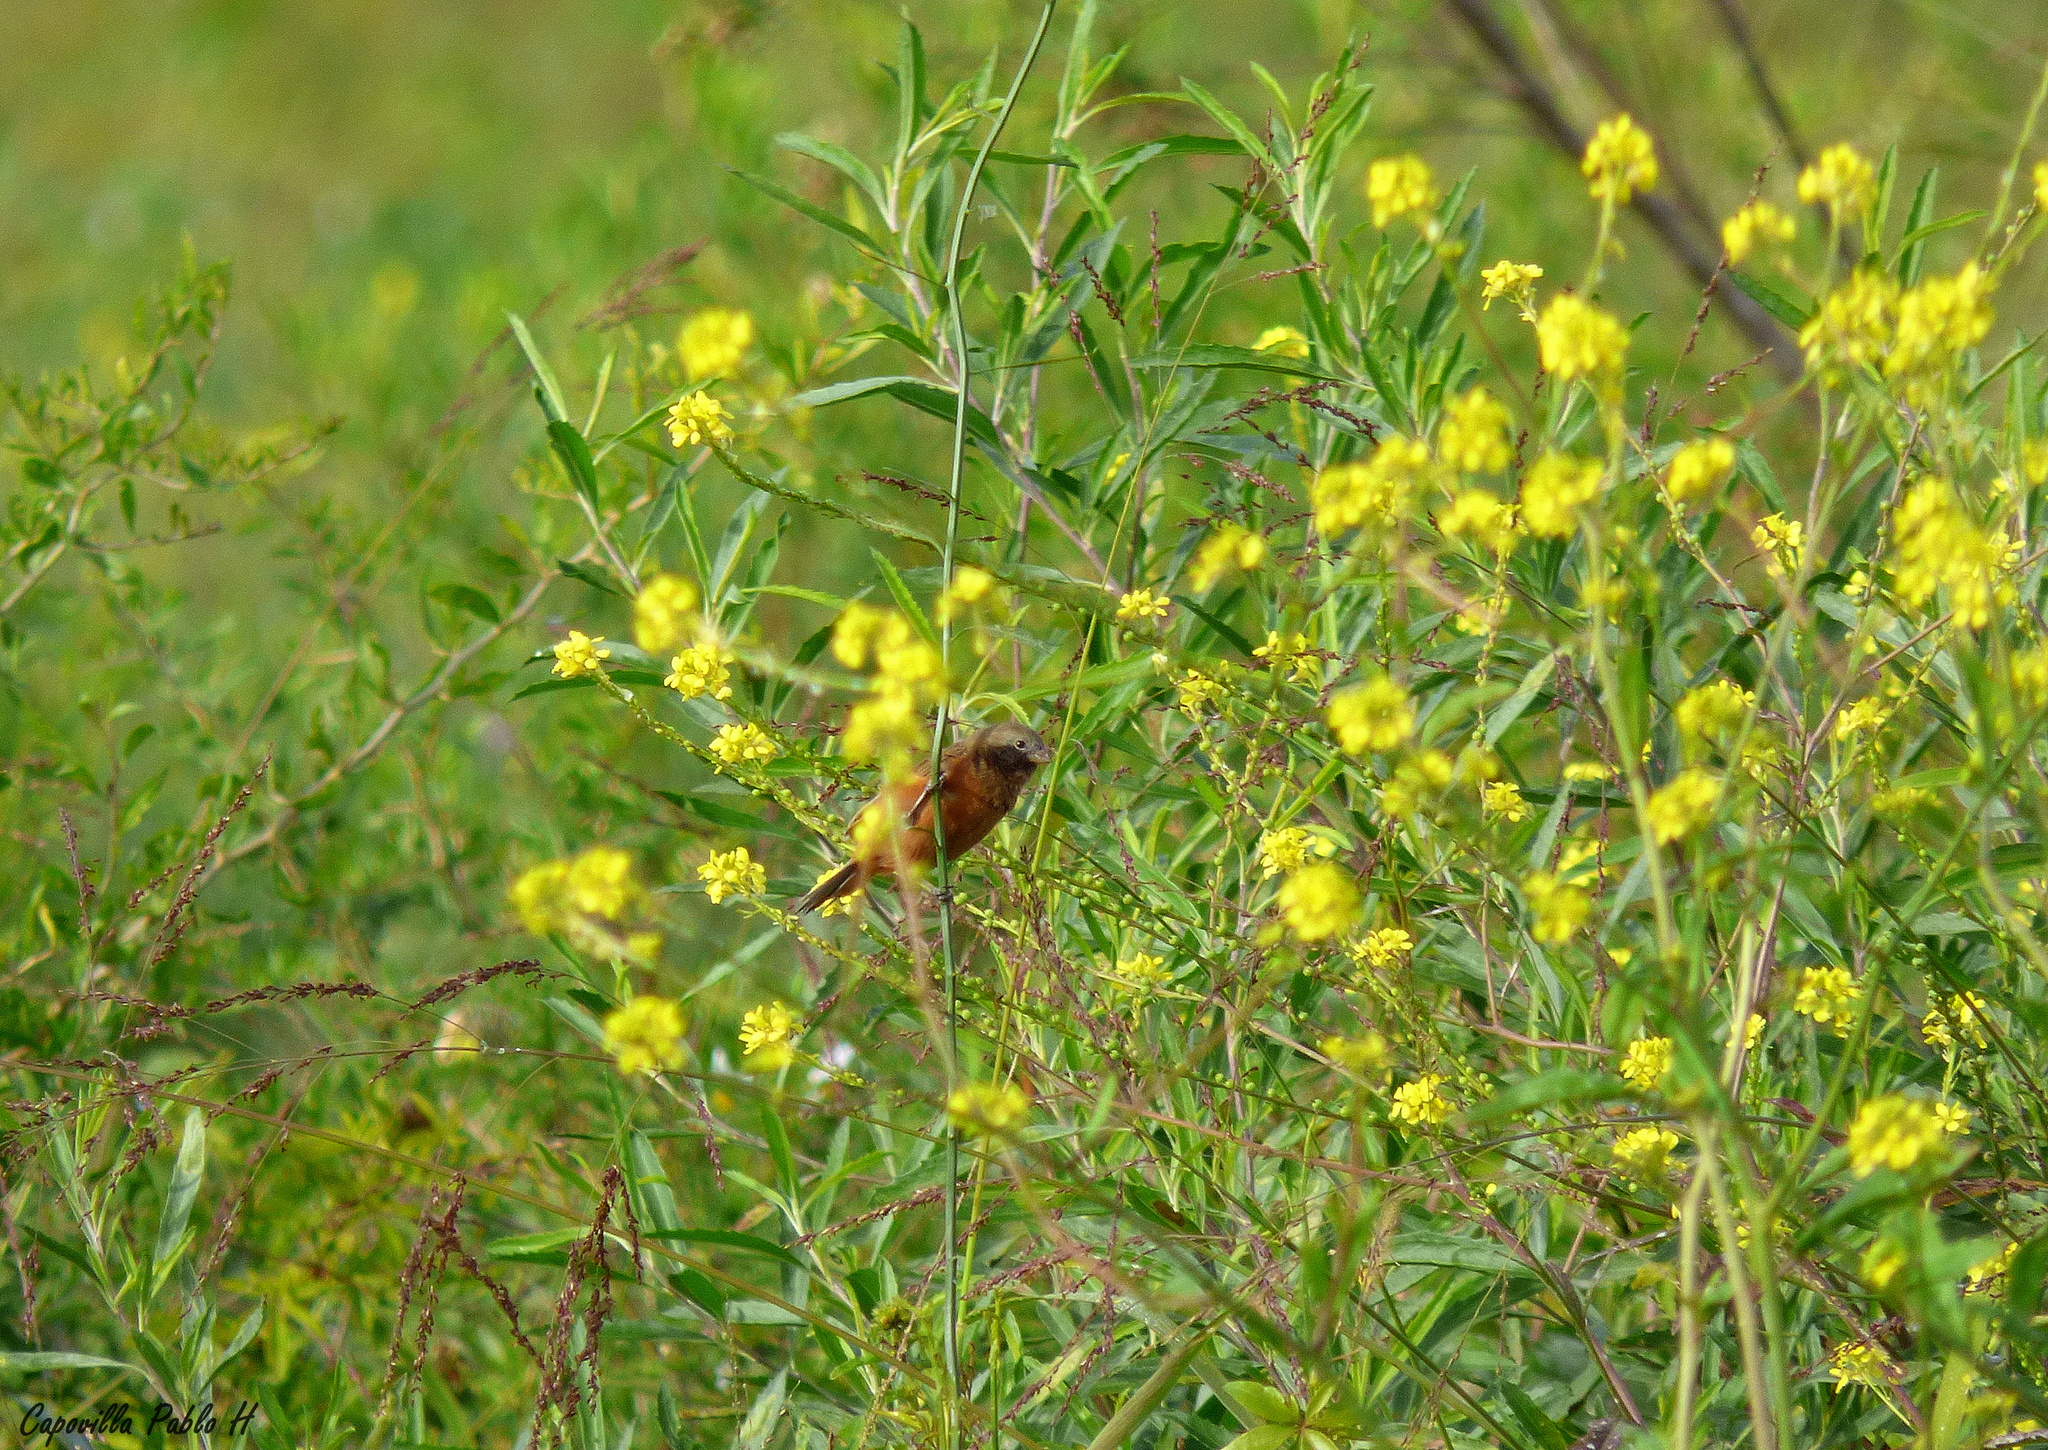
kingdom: Animalia
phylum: Chordata
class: Aves
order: Passeriformes
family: Thraupidae
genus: Sporophila
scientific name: Sporophila ruficollis
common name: Dark-throated seedeater
